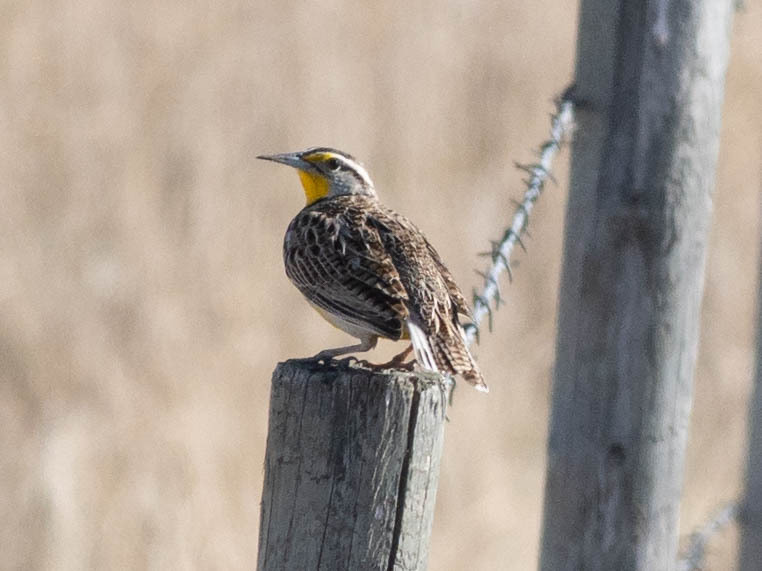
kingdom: Animalia
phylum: Chordata
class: Aves
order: Passeriformes
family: Icteridae
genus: Sturnella
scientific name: Sturnella neglecta
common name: Western meadowlark
